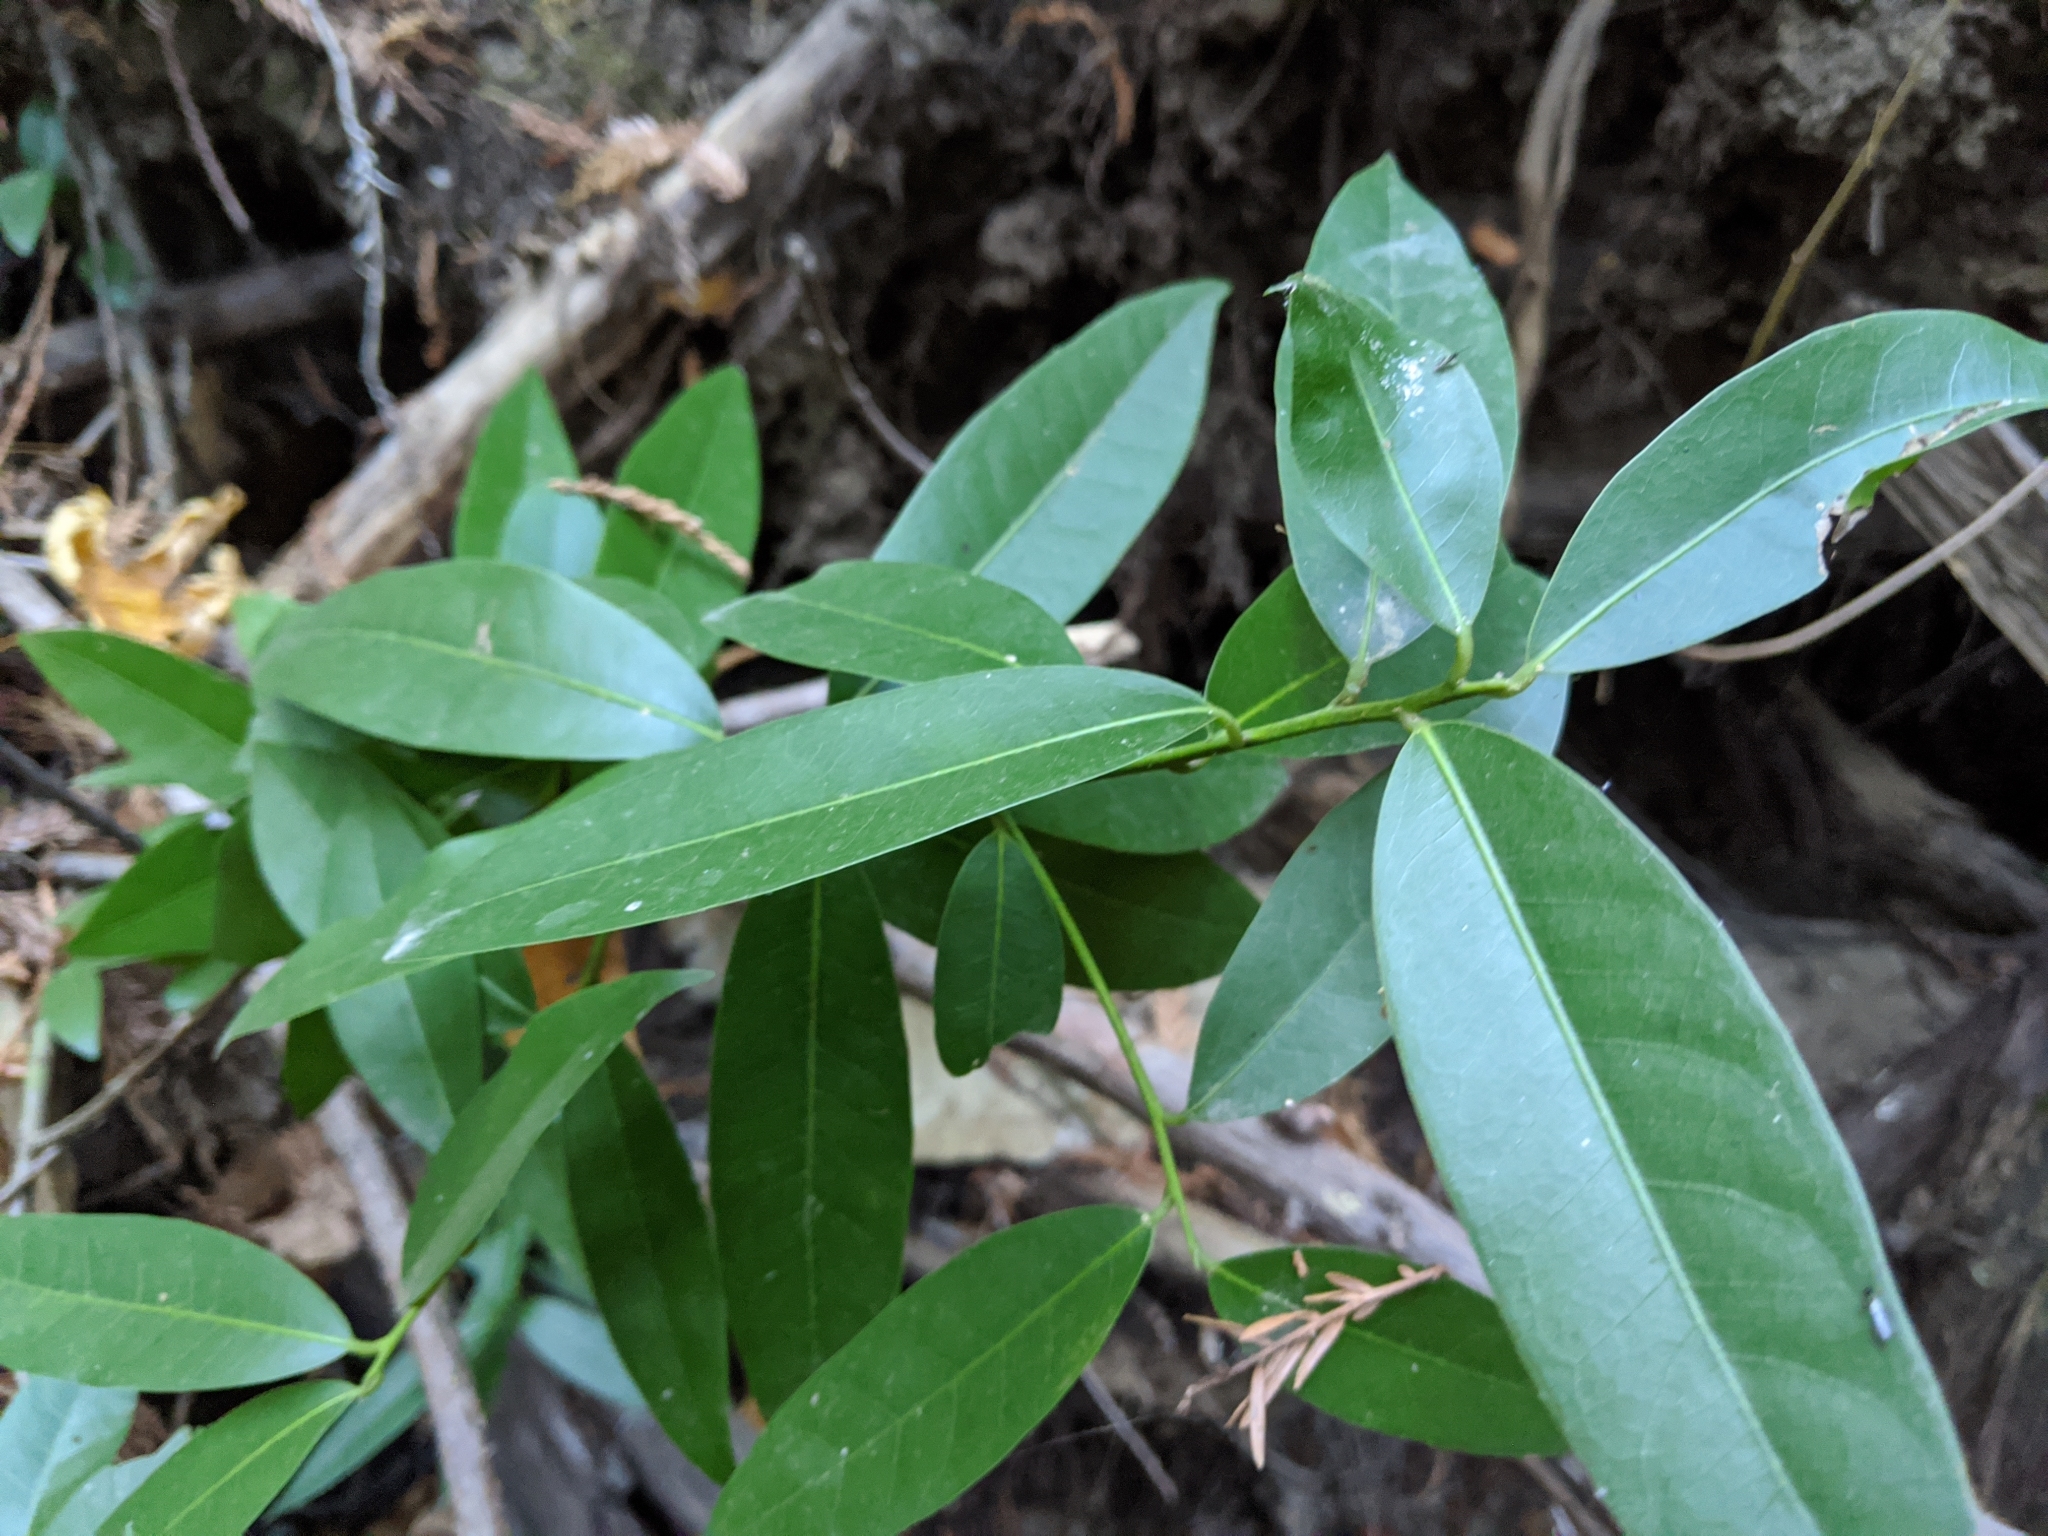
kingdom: Plantae
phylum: Tracheophyta
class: Magnoliopsida
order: Laurales
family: Lauraceae
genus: Umbellularia
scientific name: Umbellularia californica
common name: California bay
